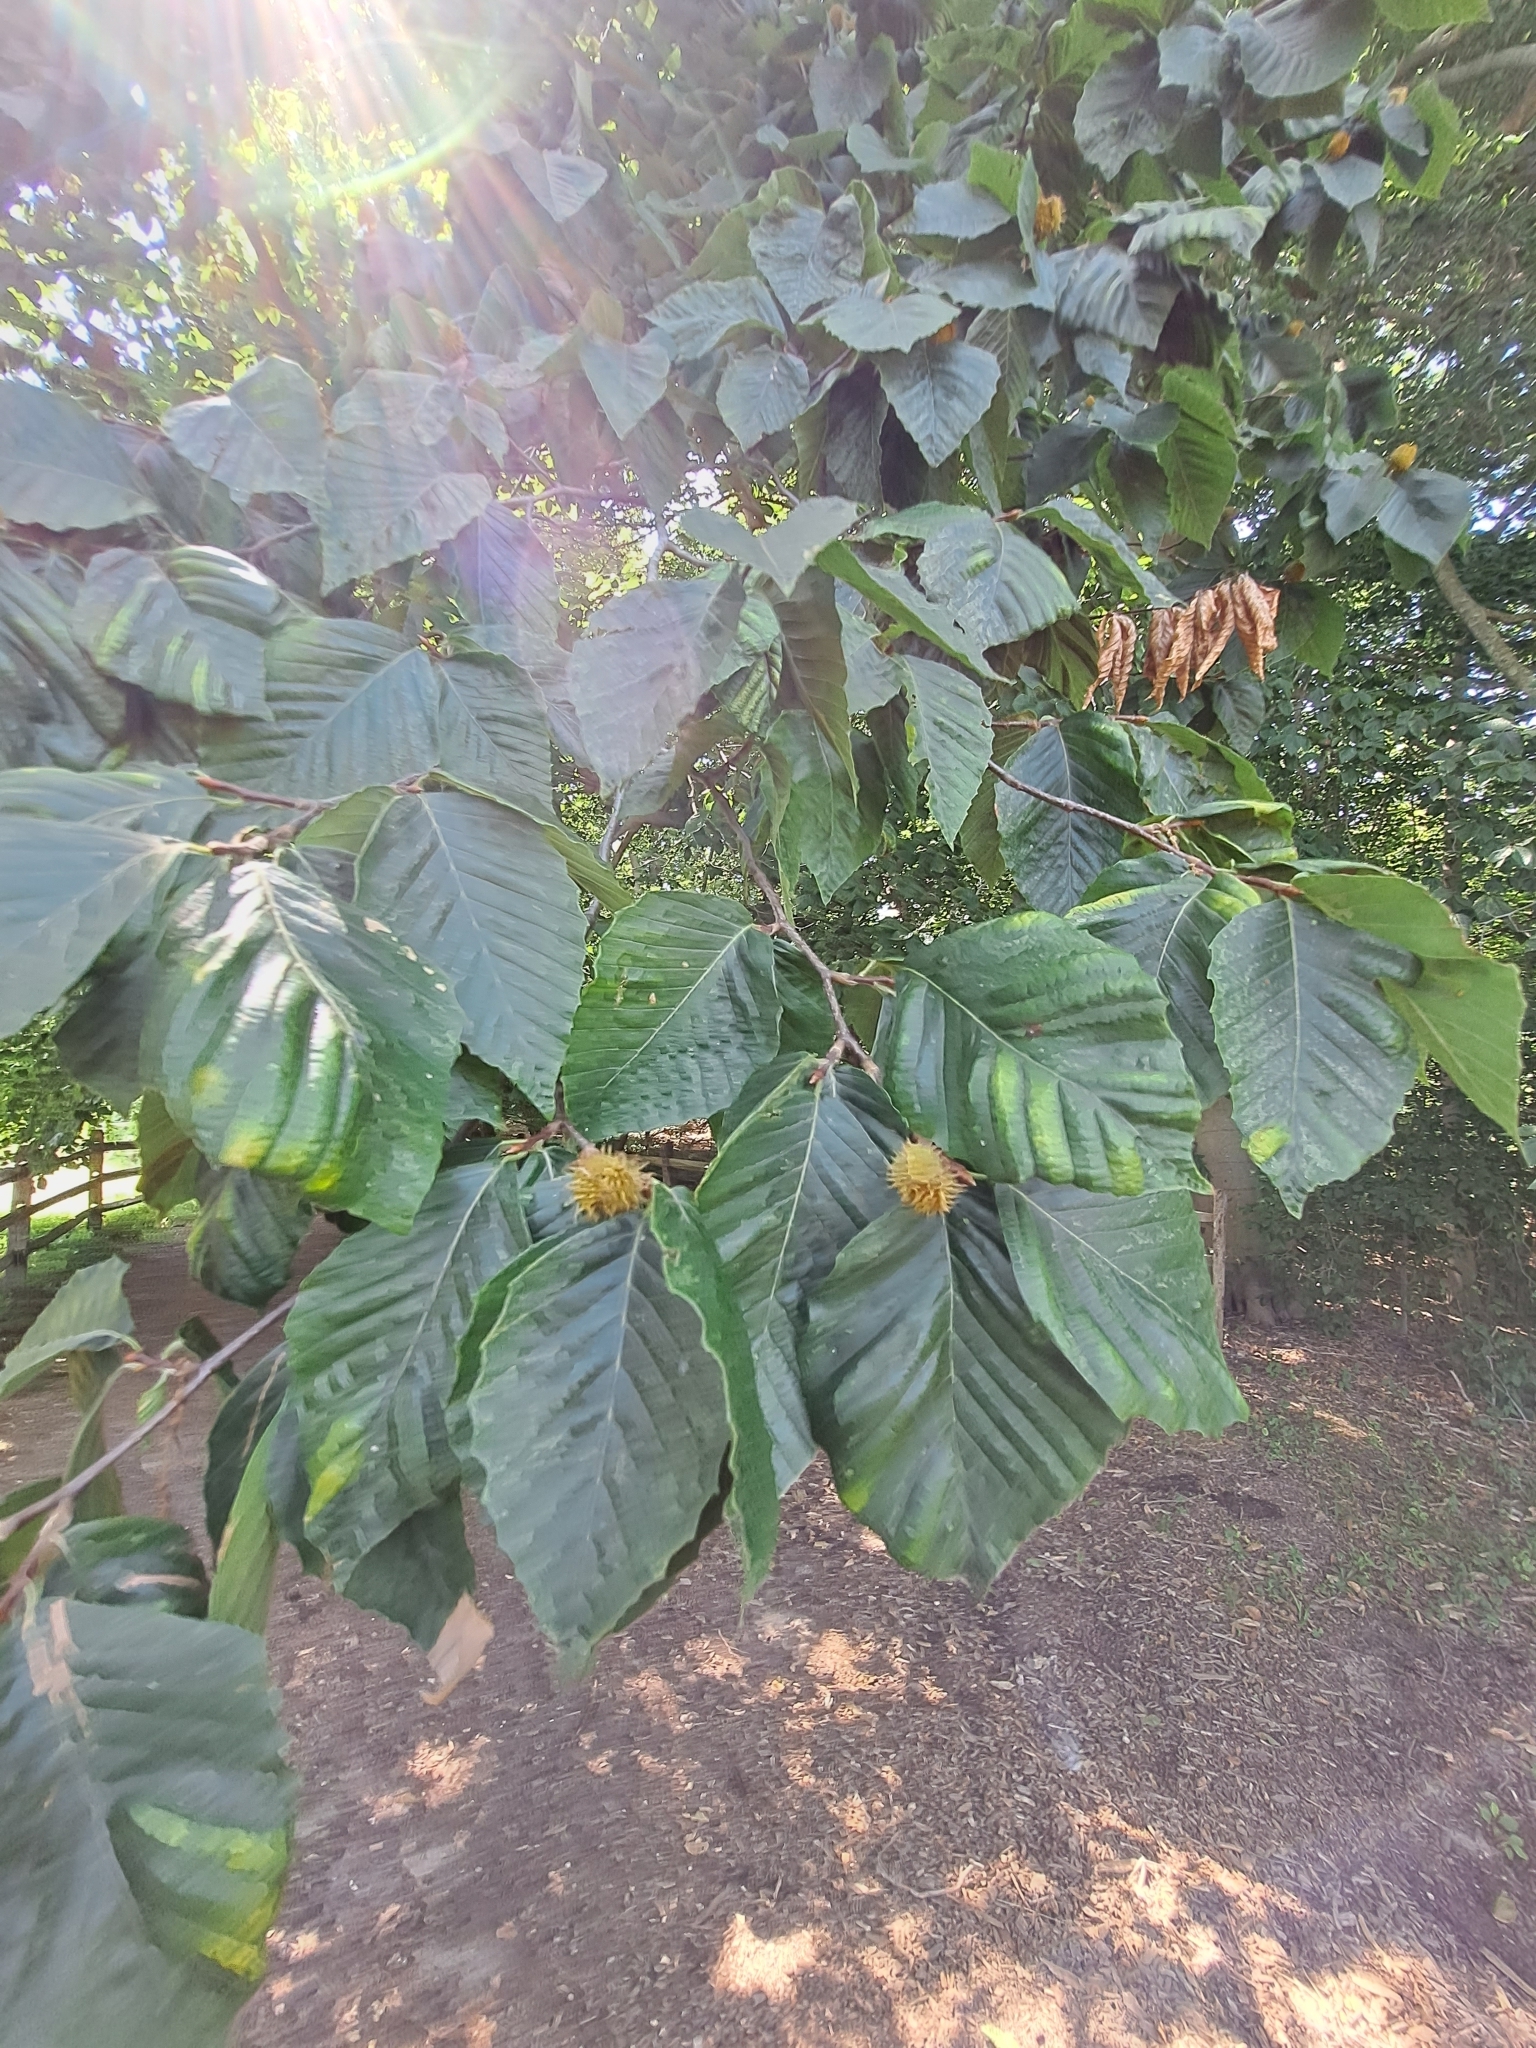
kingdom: Plantae
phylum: Tracheophyta
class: Magnoliopsida
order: Fagales
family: Fagaceae
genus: Fagus
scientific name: Fagus grandifolia
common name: American beech
